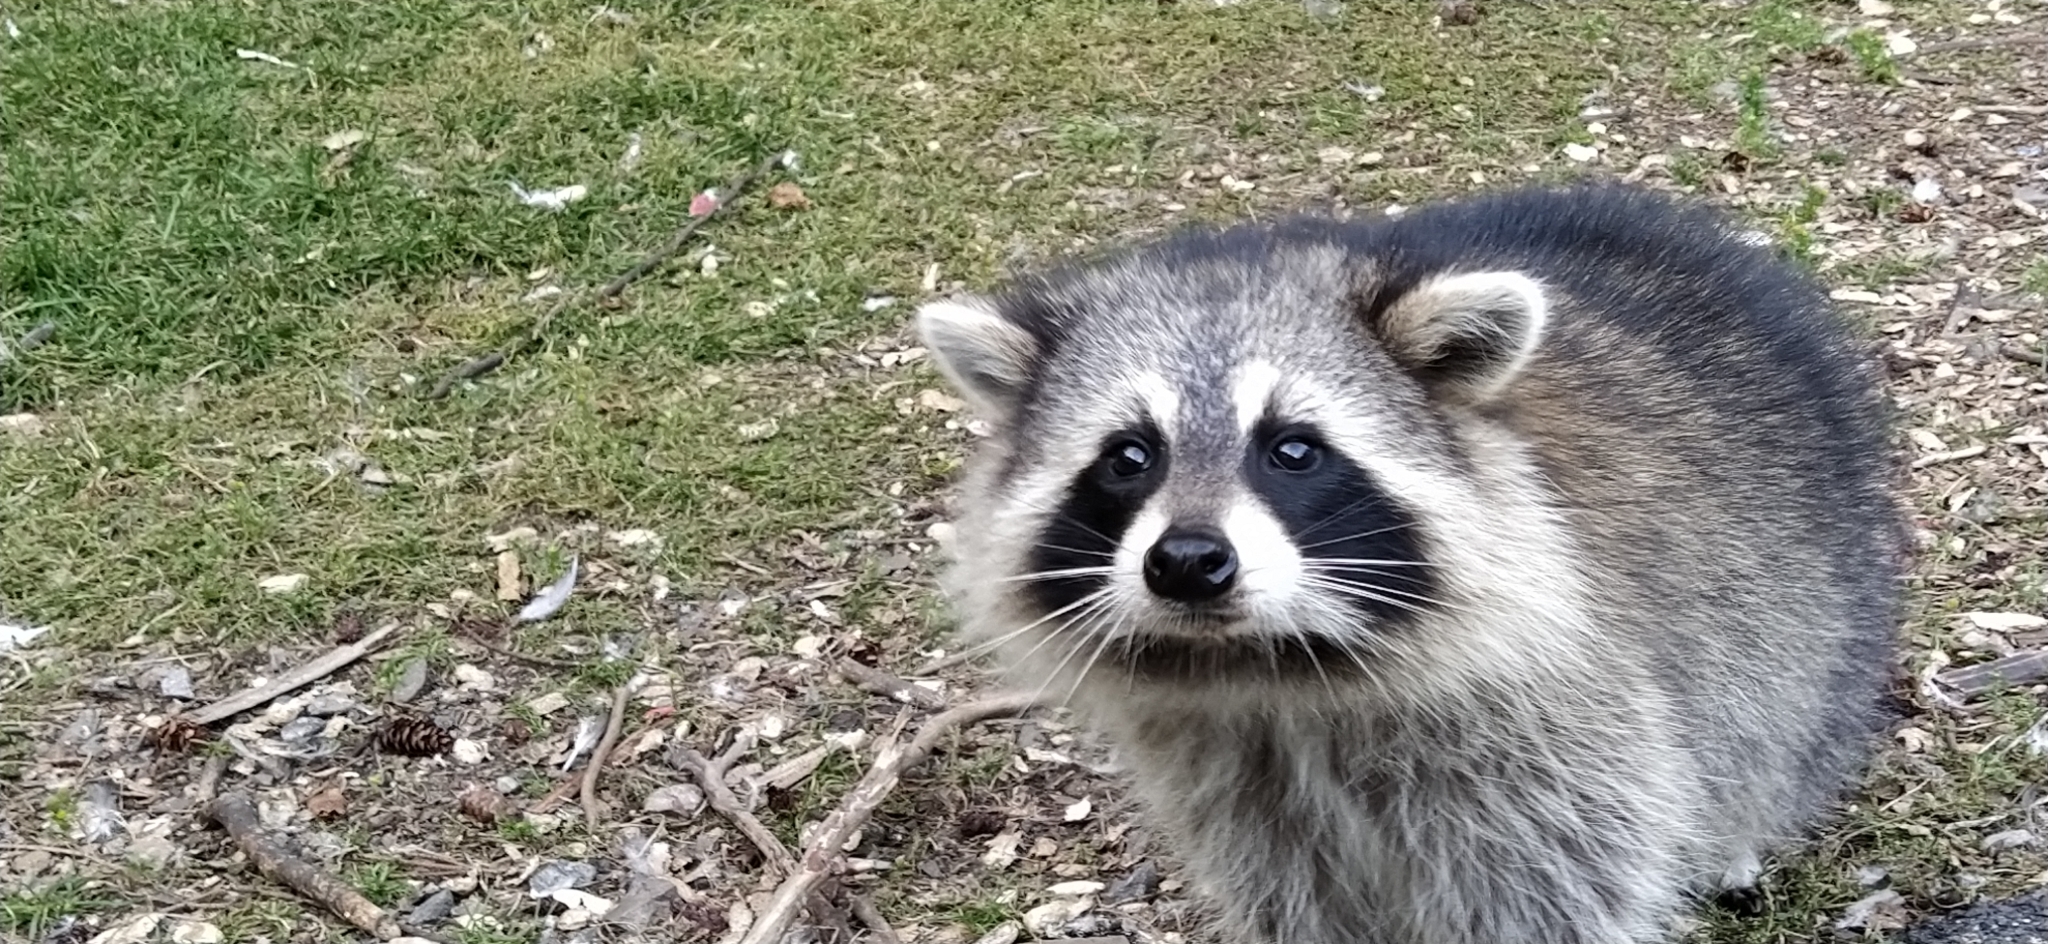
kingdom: Animalia
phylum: Chordata
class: Mammalia
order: Carnivora
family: Procyonidae
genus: Procyon
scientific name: Procyon lotor
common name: Raccoon
